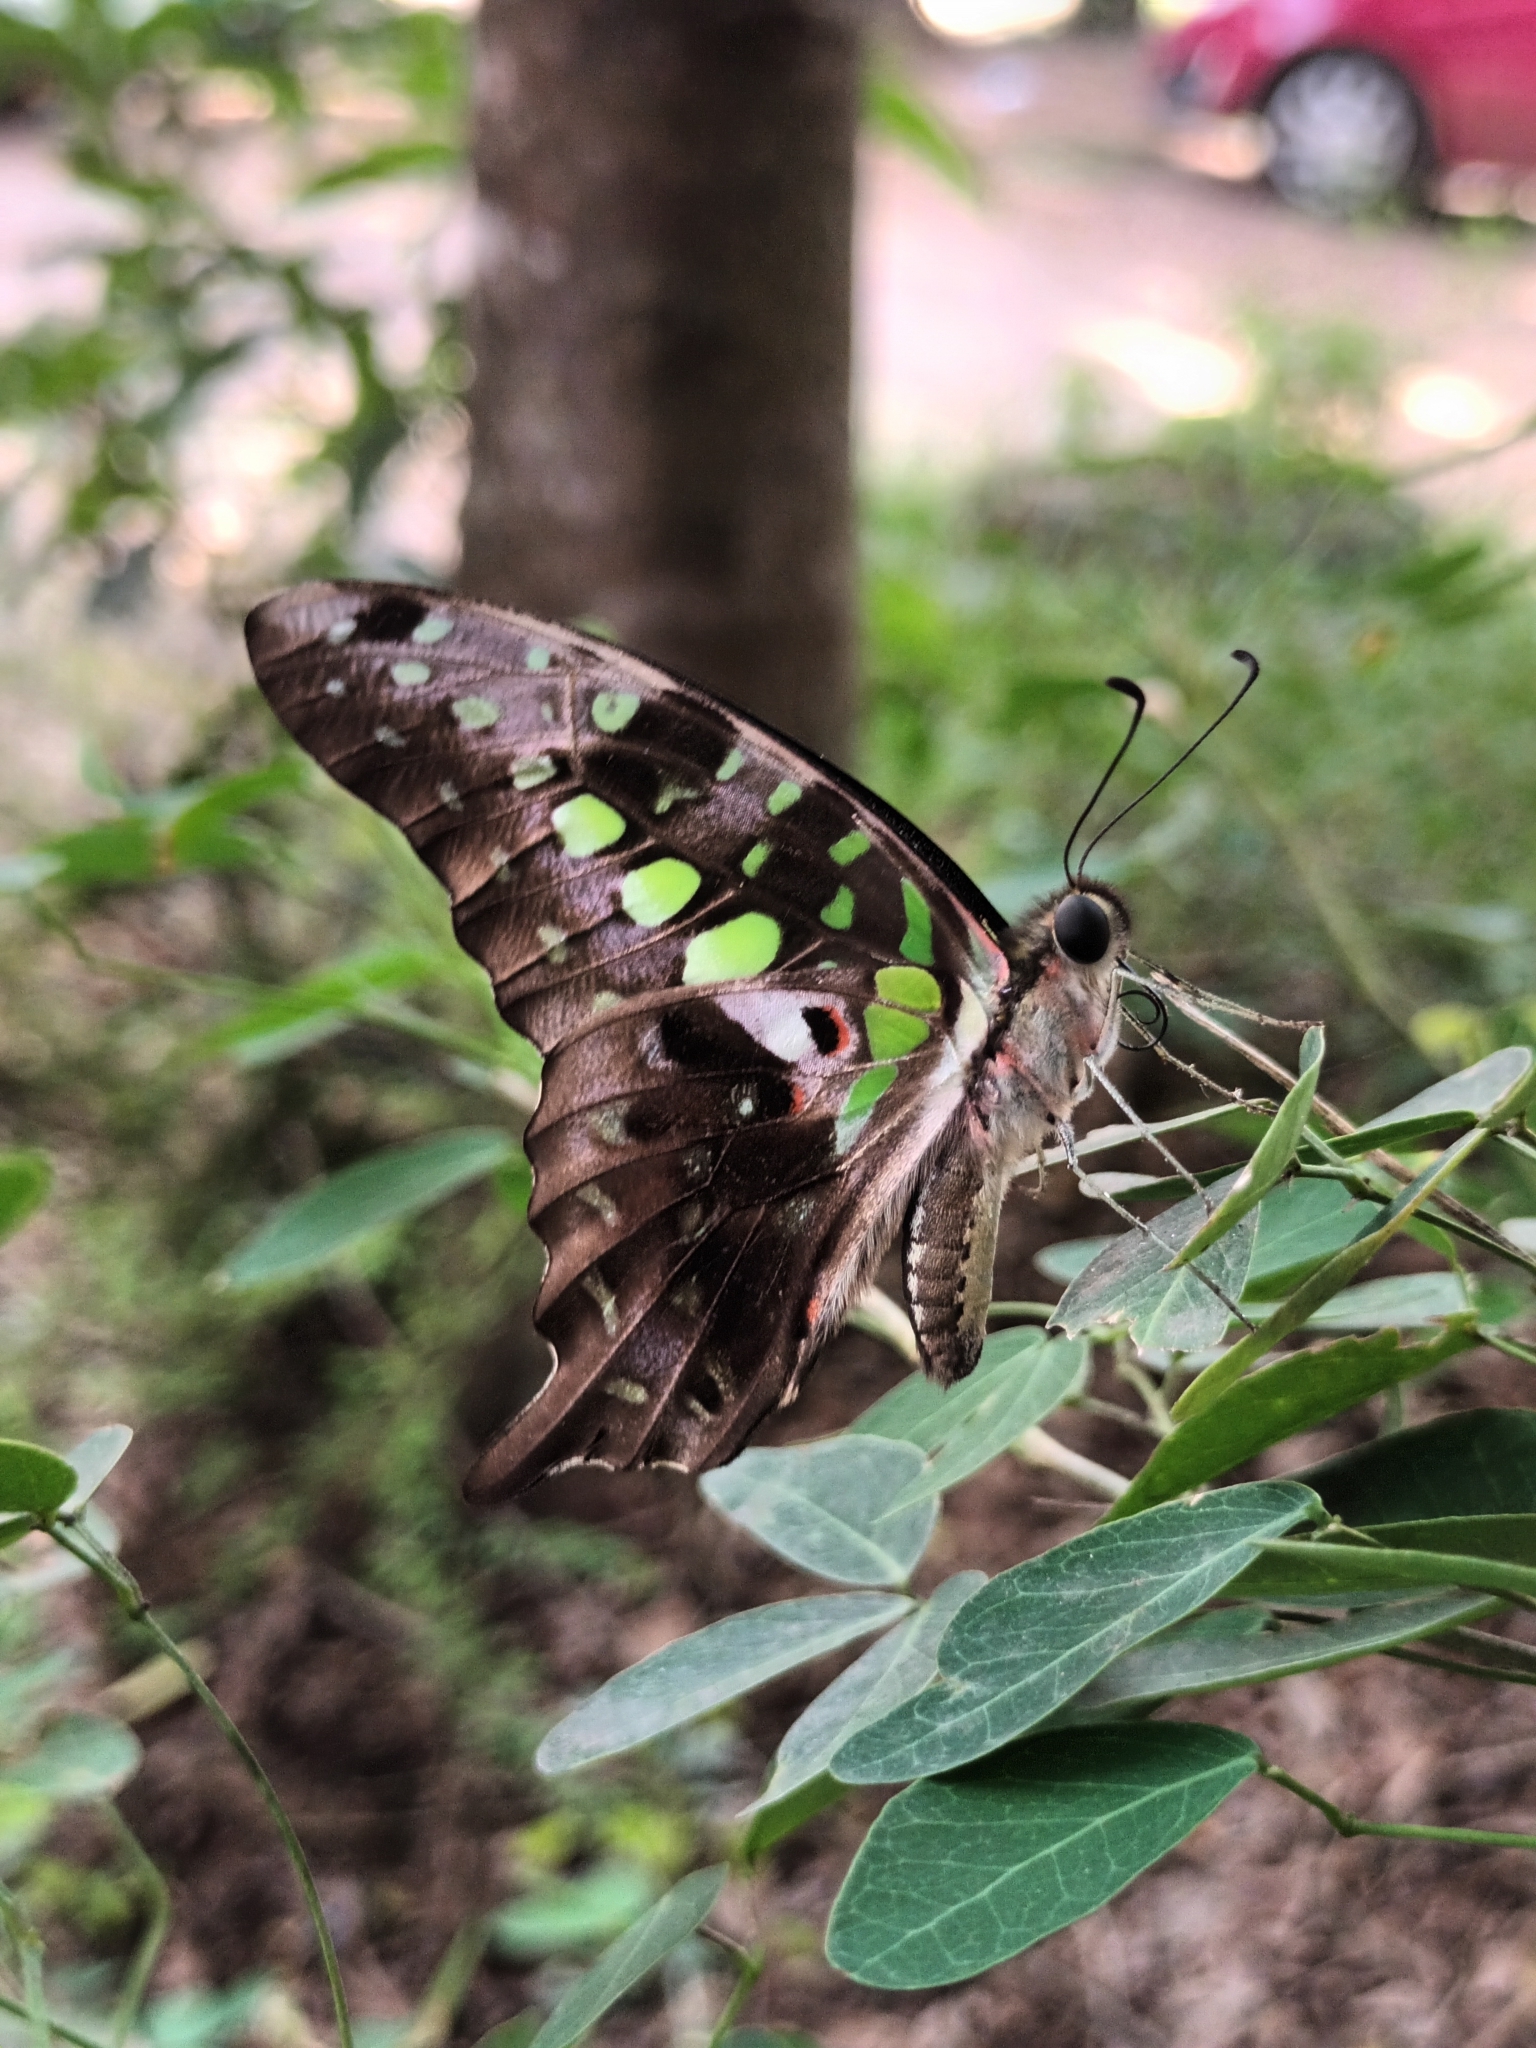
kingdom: Animalia
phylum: Arthropoda
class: Insecta
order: Lepidoptera
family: Papilionidae
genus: Graphium
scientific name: Graphium agamemnon
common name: Tailed jay
